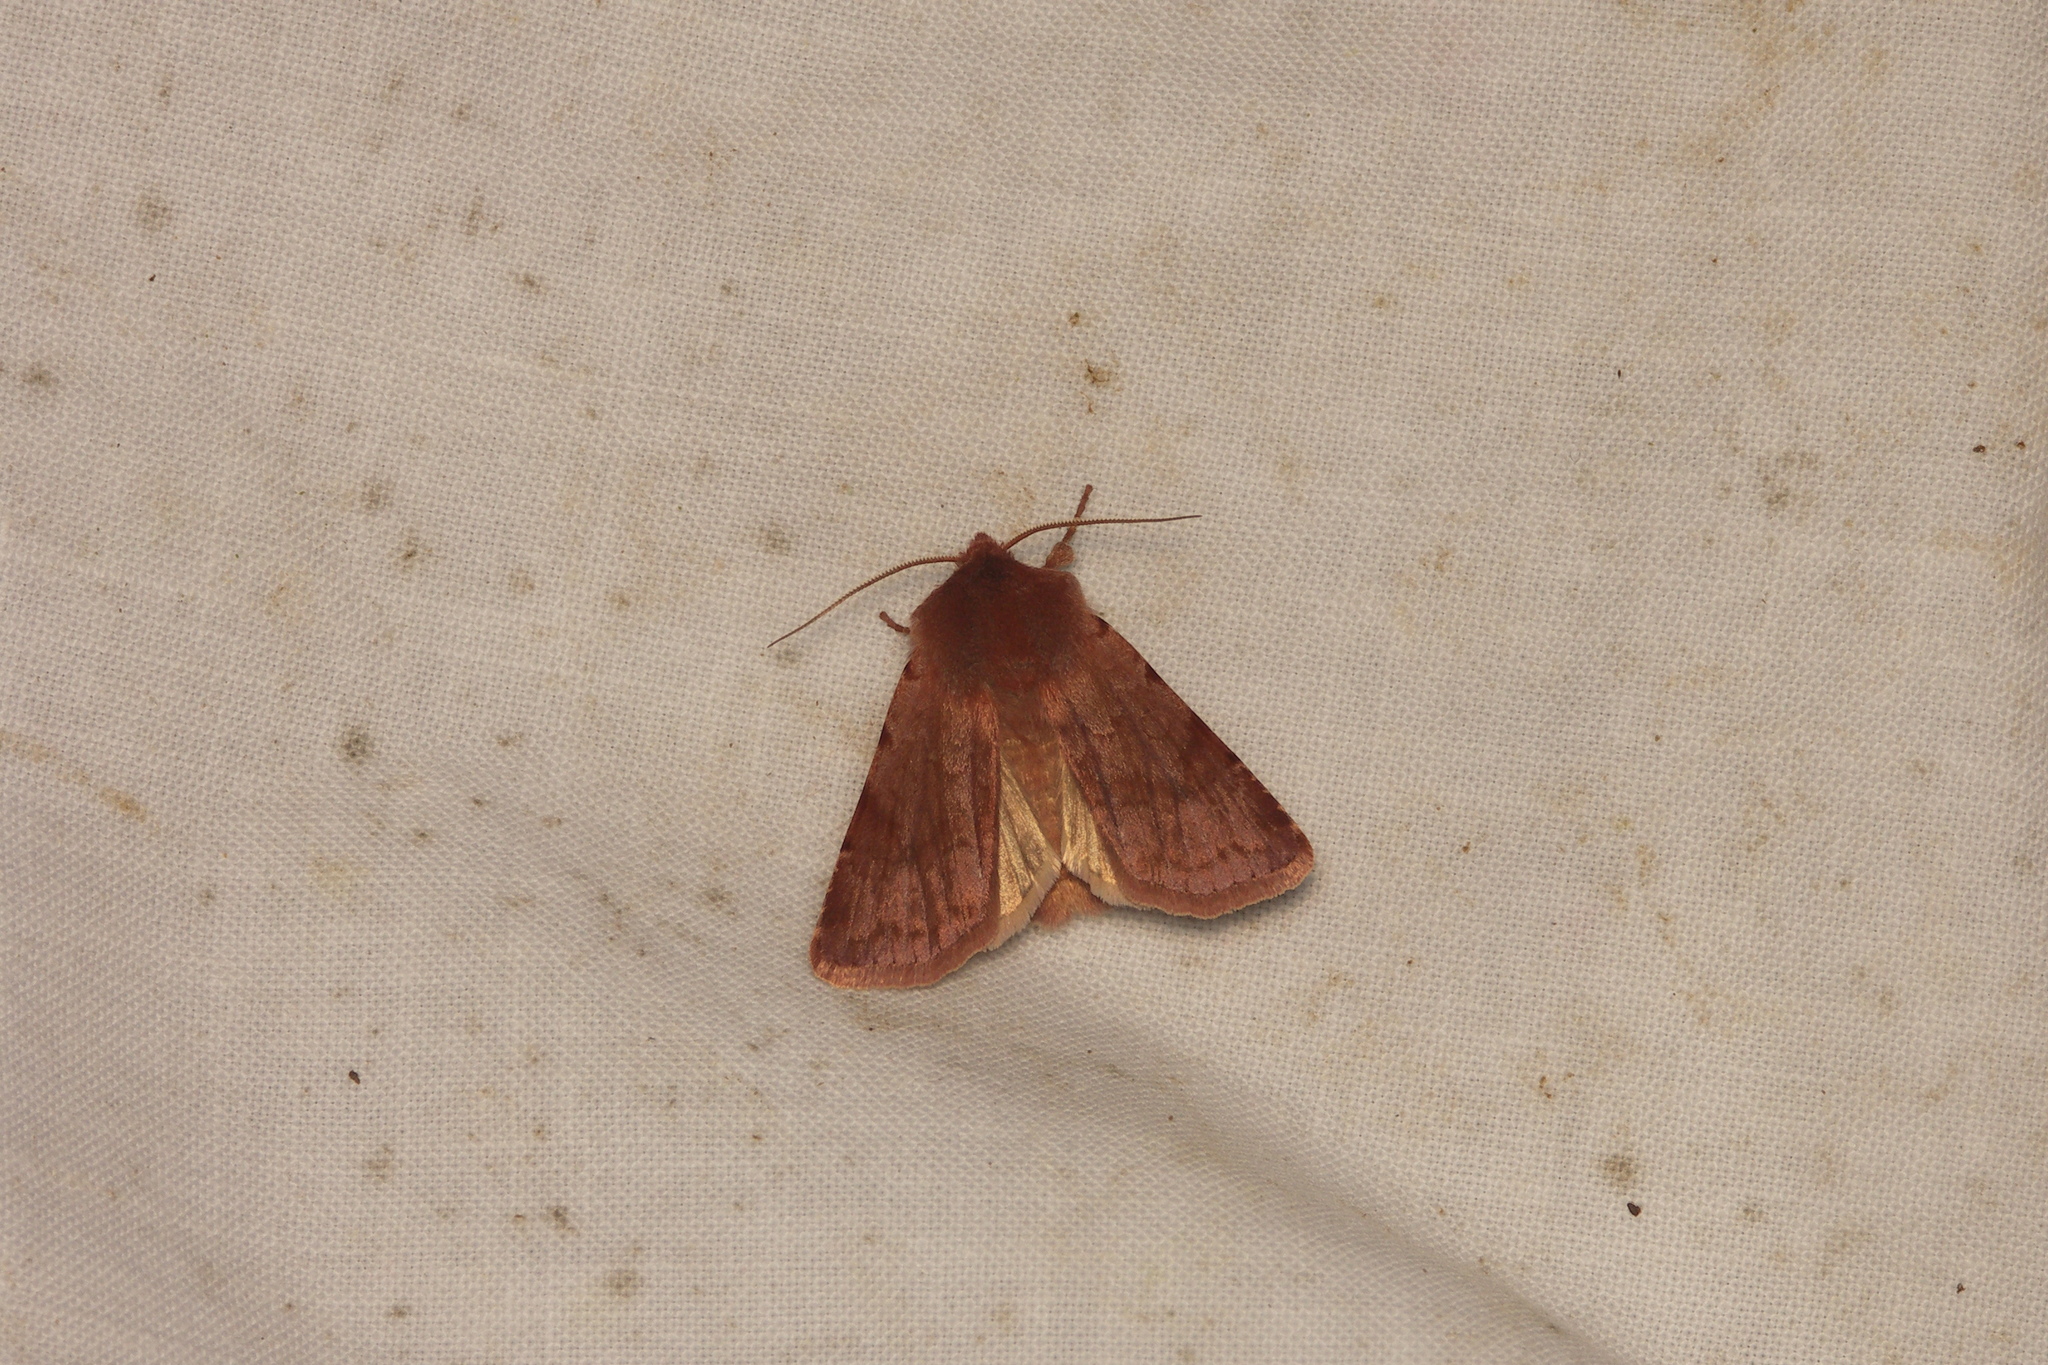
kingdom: Animalia
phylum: Arthropoda
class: Insecta
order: Lepidoptera
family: Noctuidae
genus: Cerastis
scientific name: Cerastis rubricosa
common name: Red chestnut
